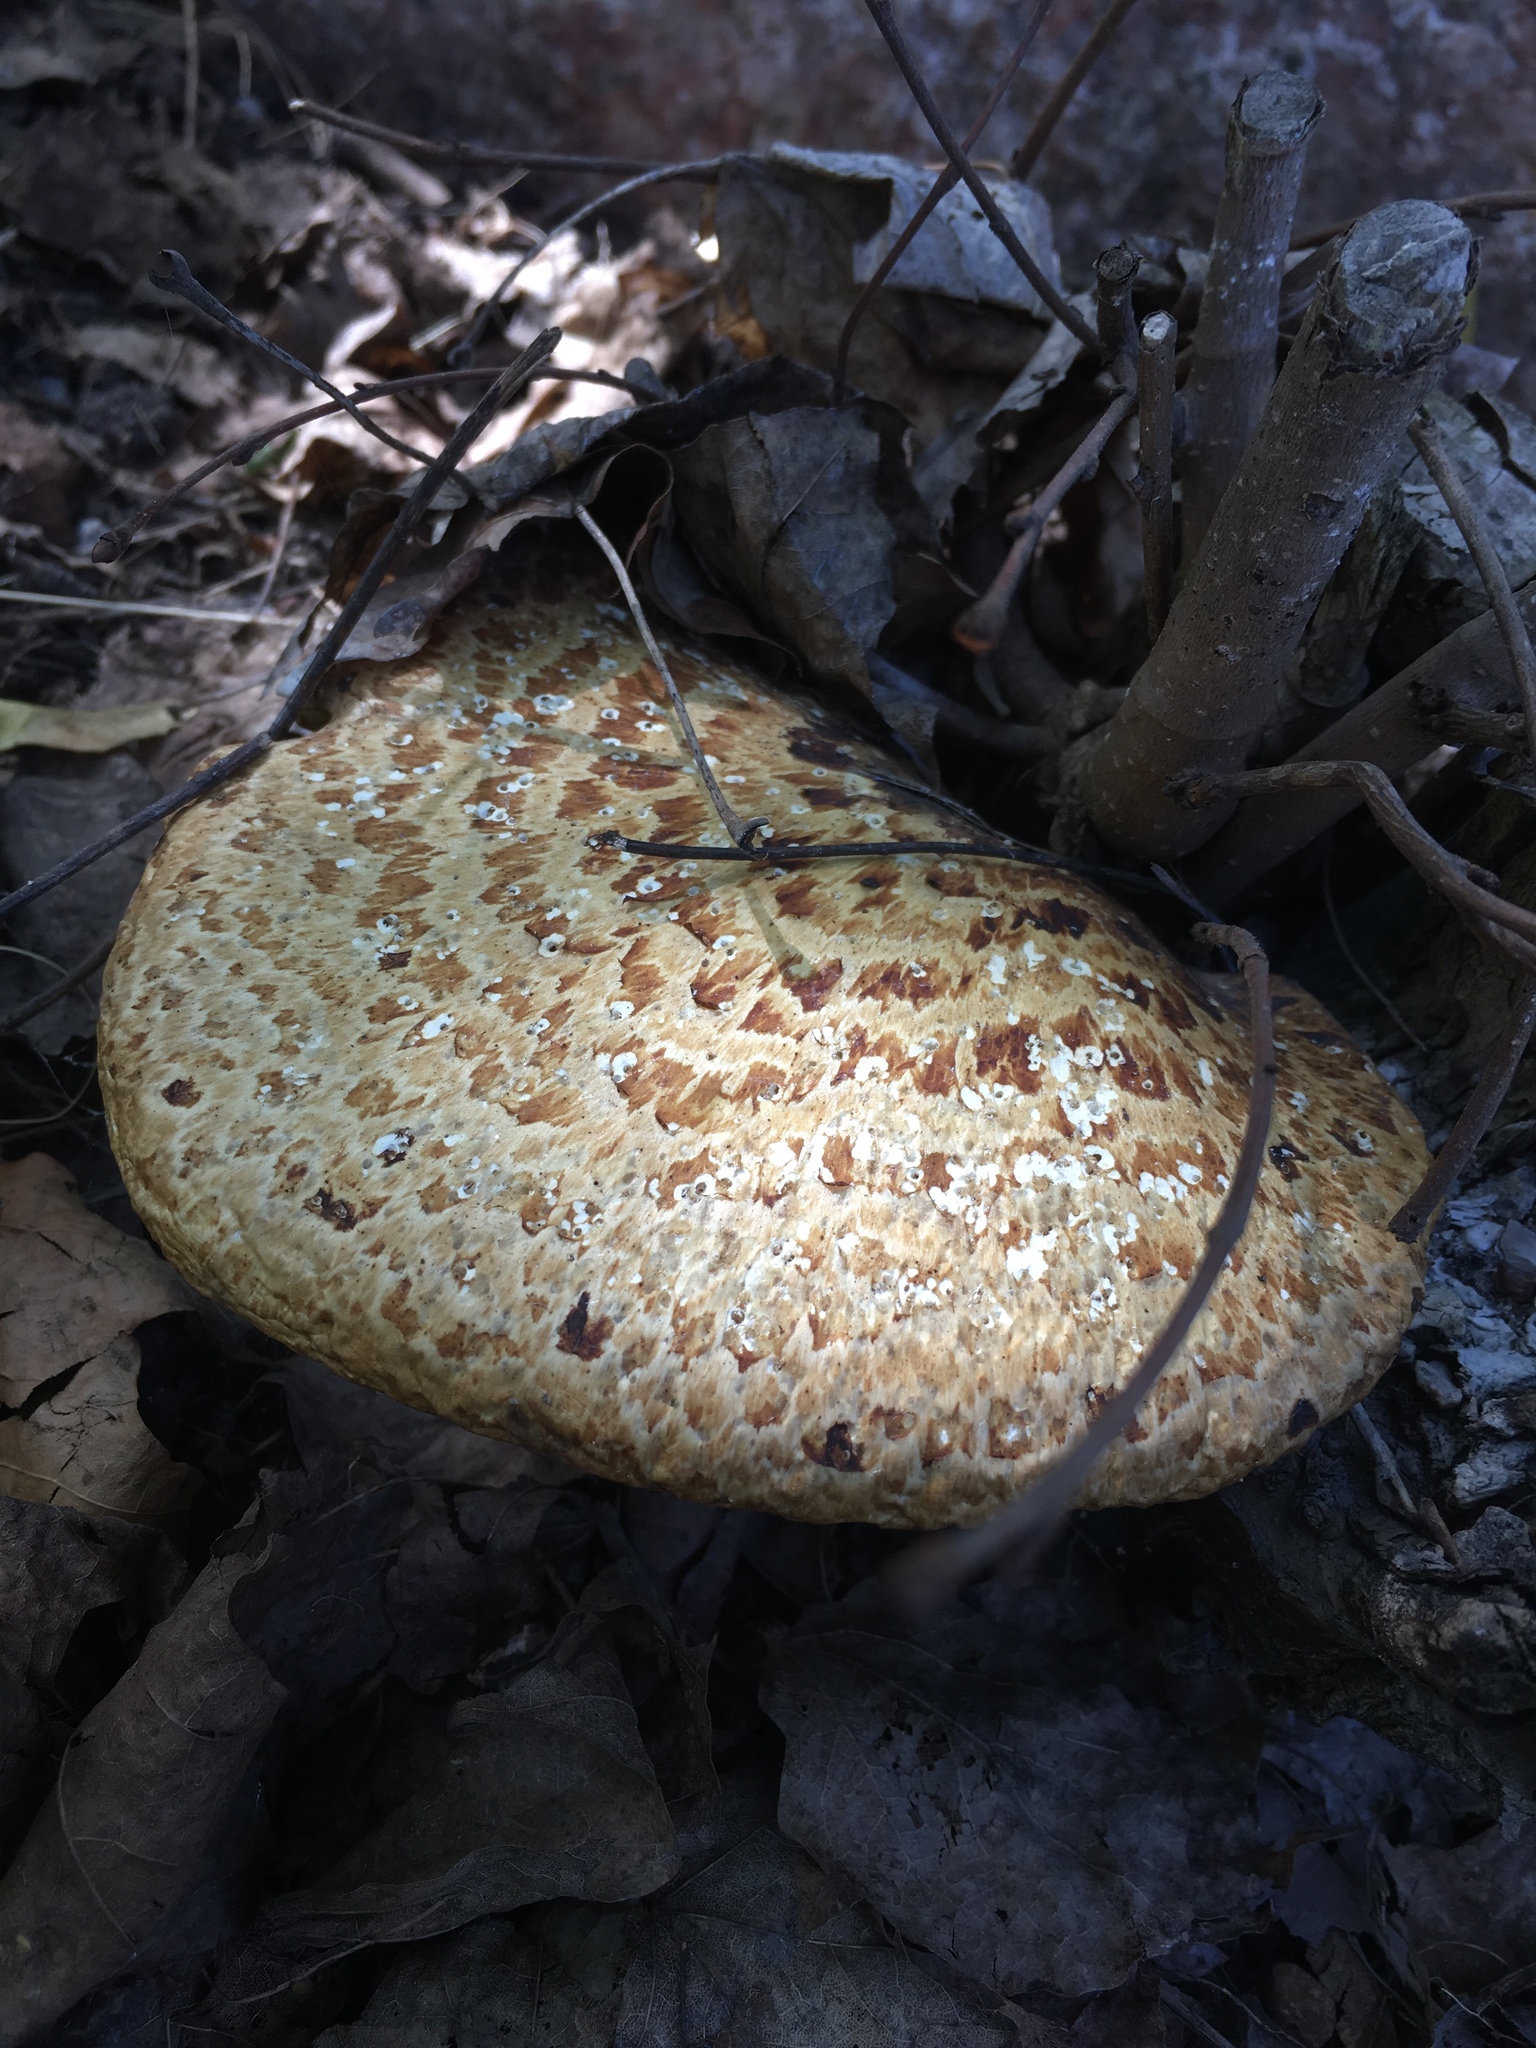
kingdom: Fungi
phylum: Basidiomycota
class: Agaricomycetes
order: Polyporales
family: Polyporaceae
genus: Cerioporus
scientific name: Cerioporus squamosus
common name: Dryad's saddle
